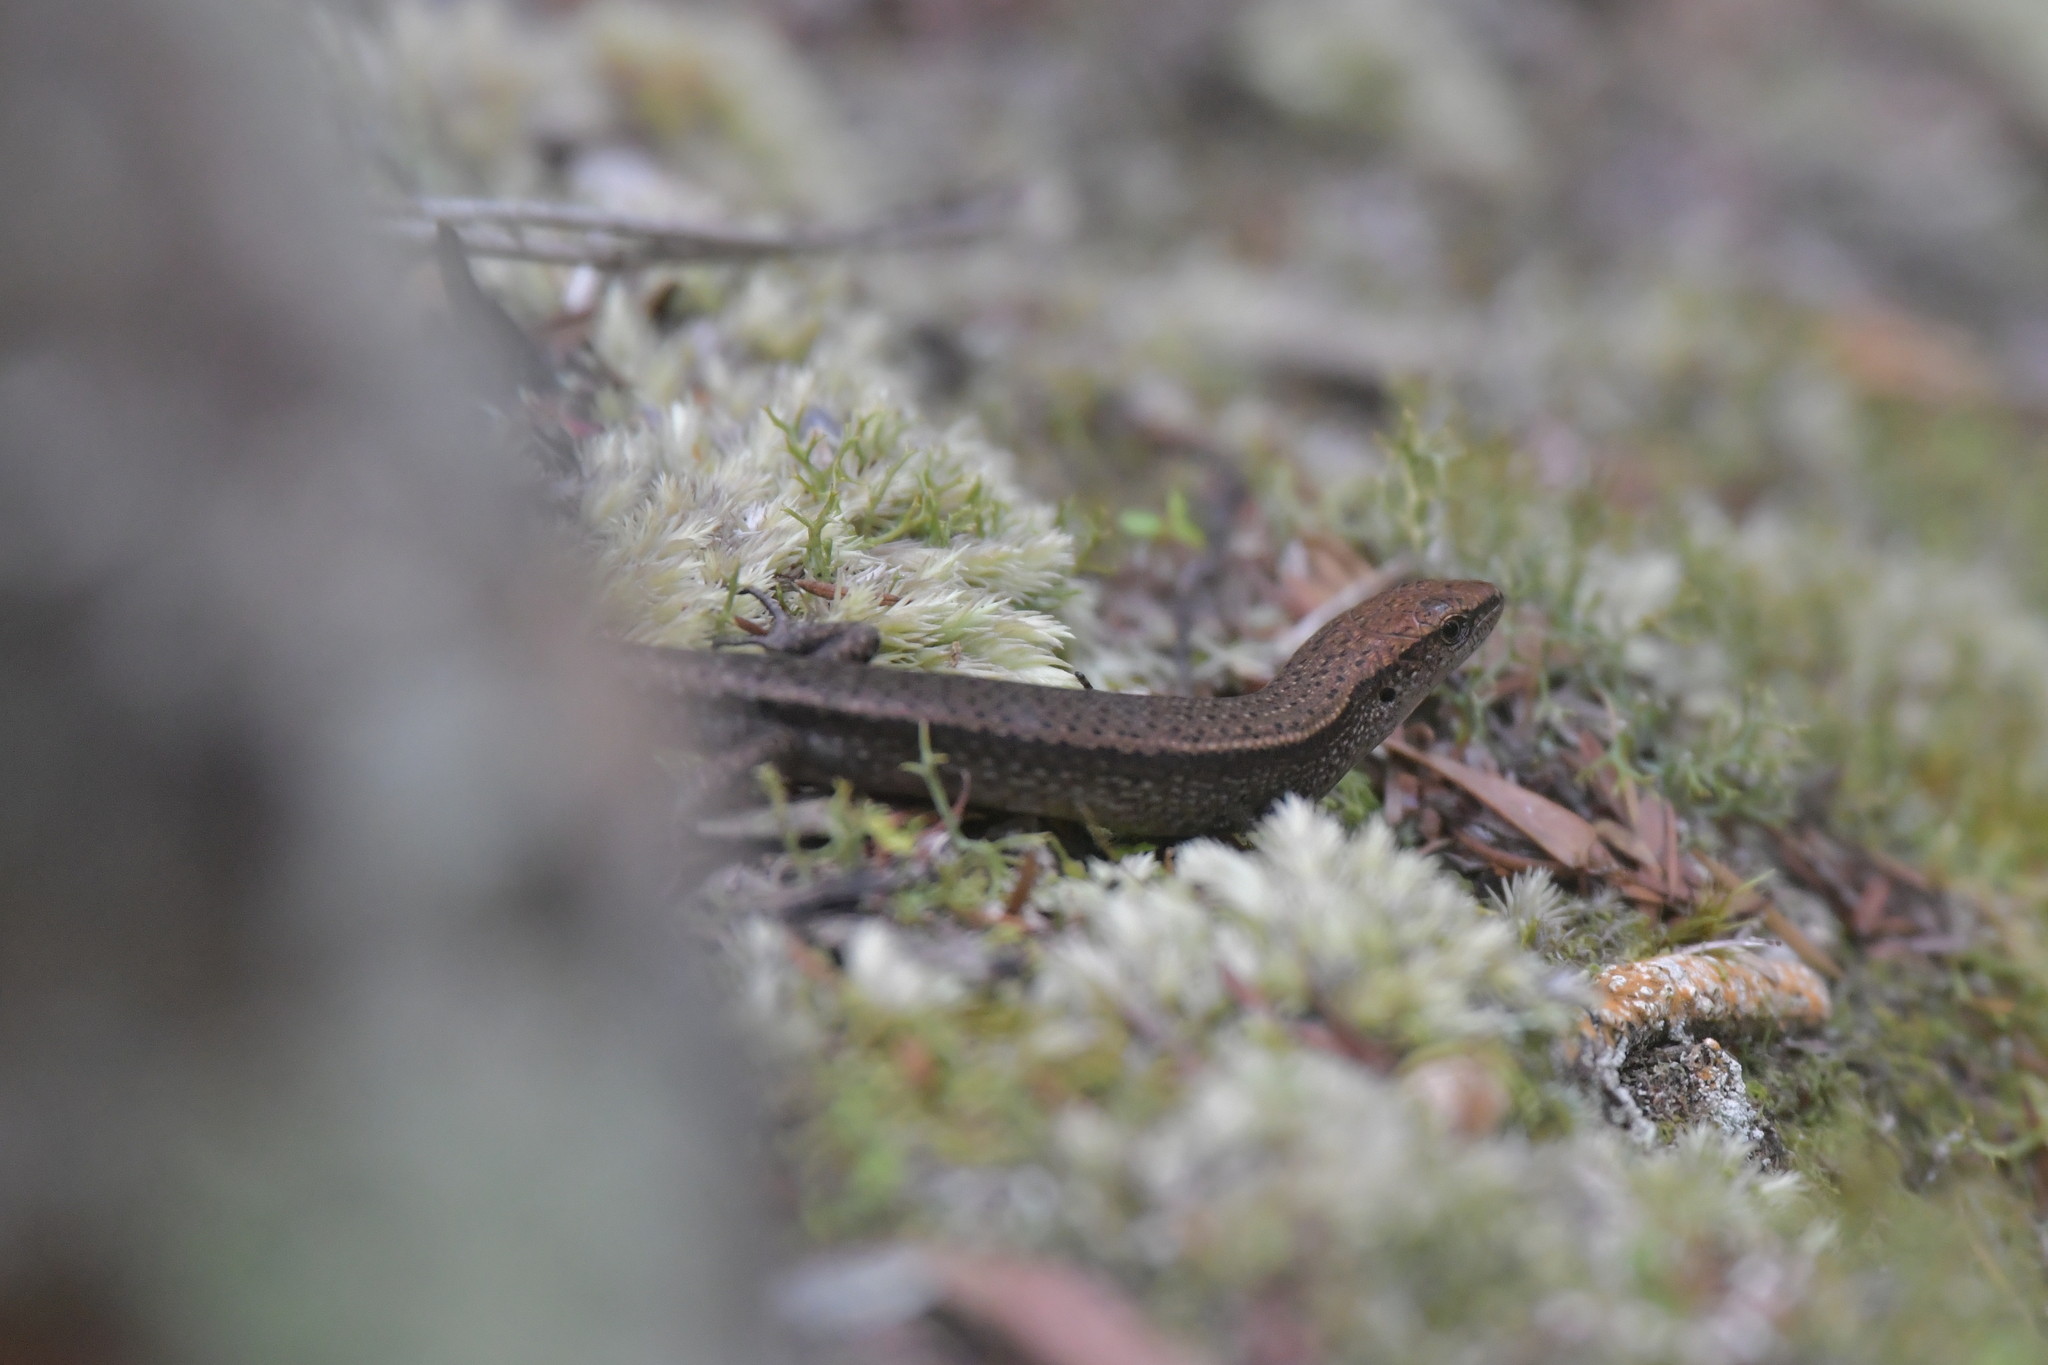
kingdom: Animalia
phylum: Chordata
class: Squamata
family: Scincidae
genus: Lampropholis
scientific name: Lampropholis delicata
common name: Plague skink
